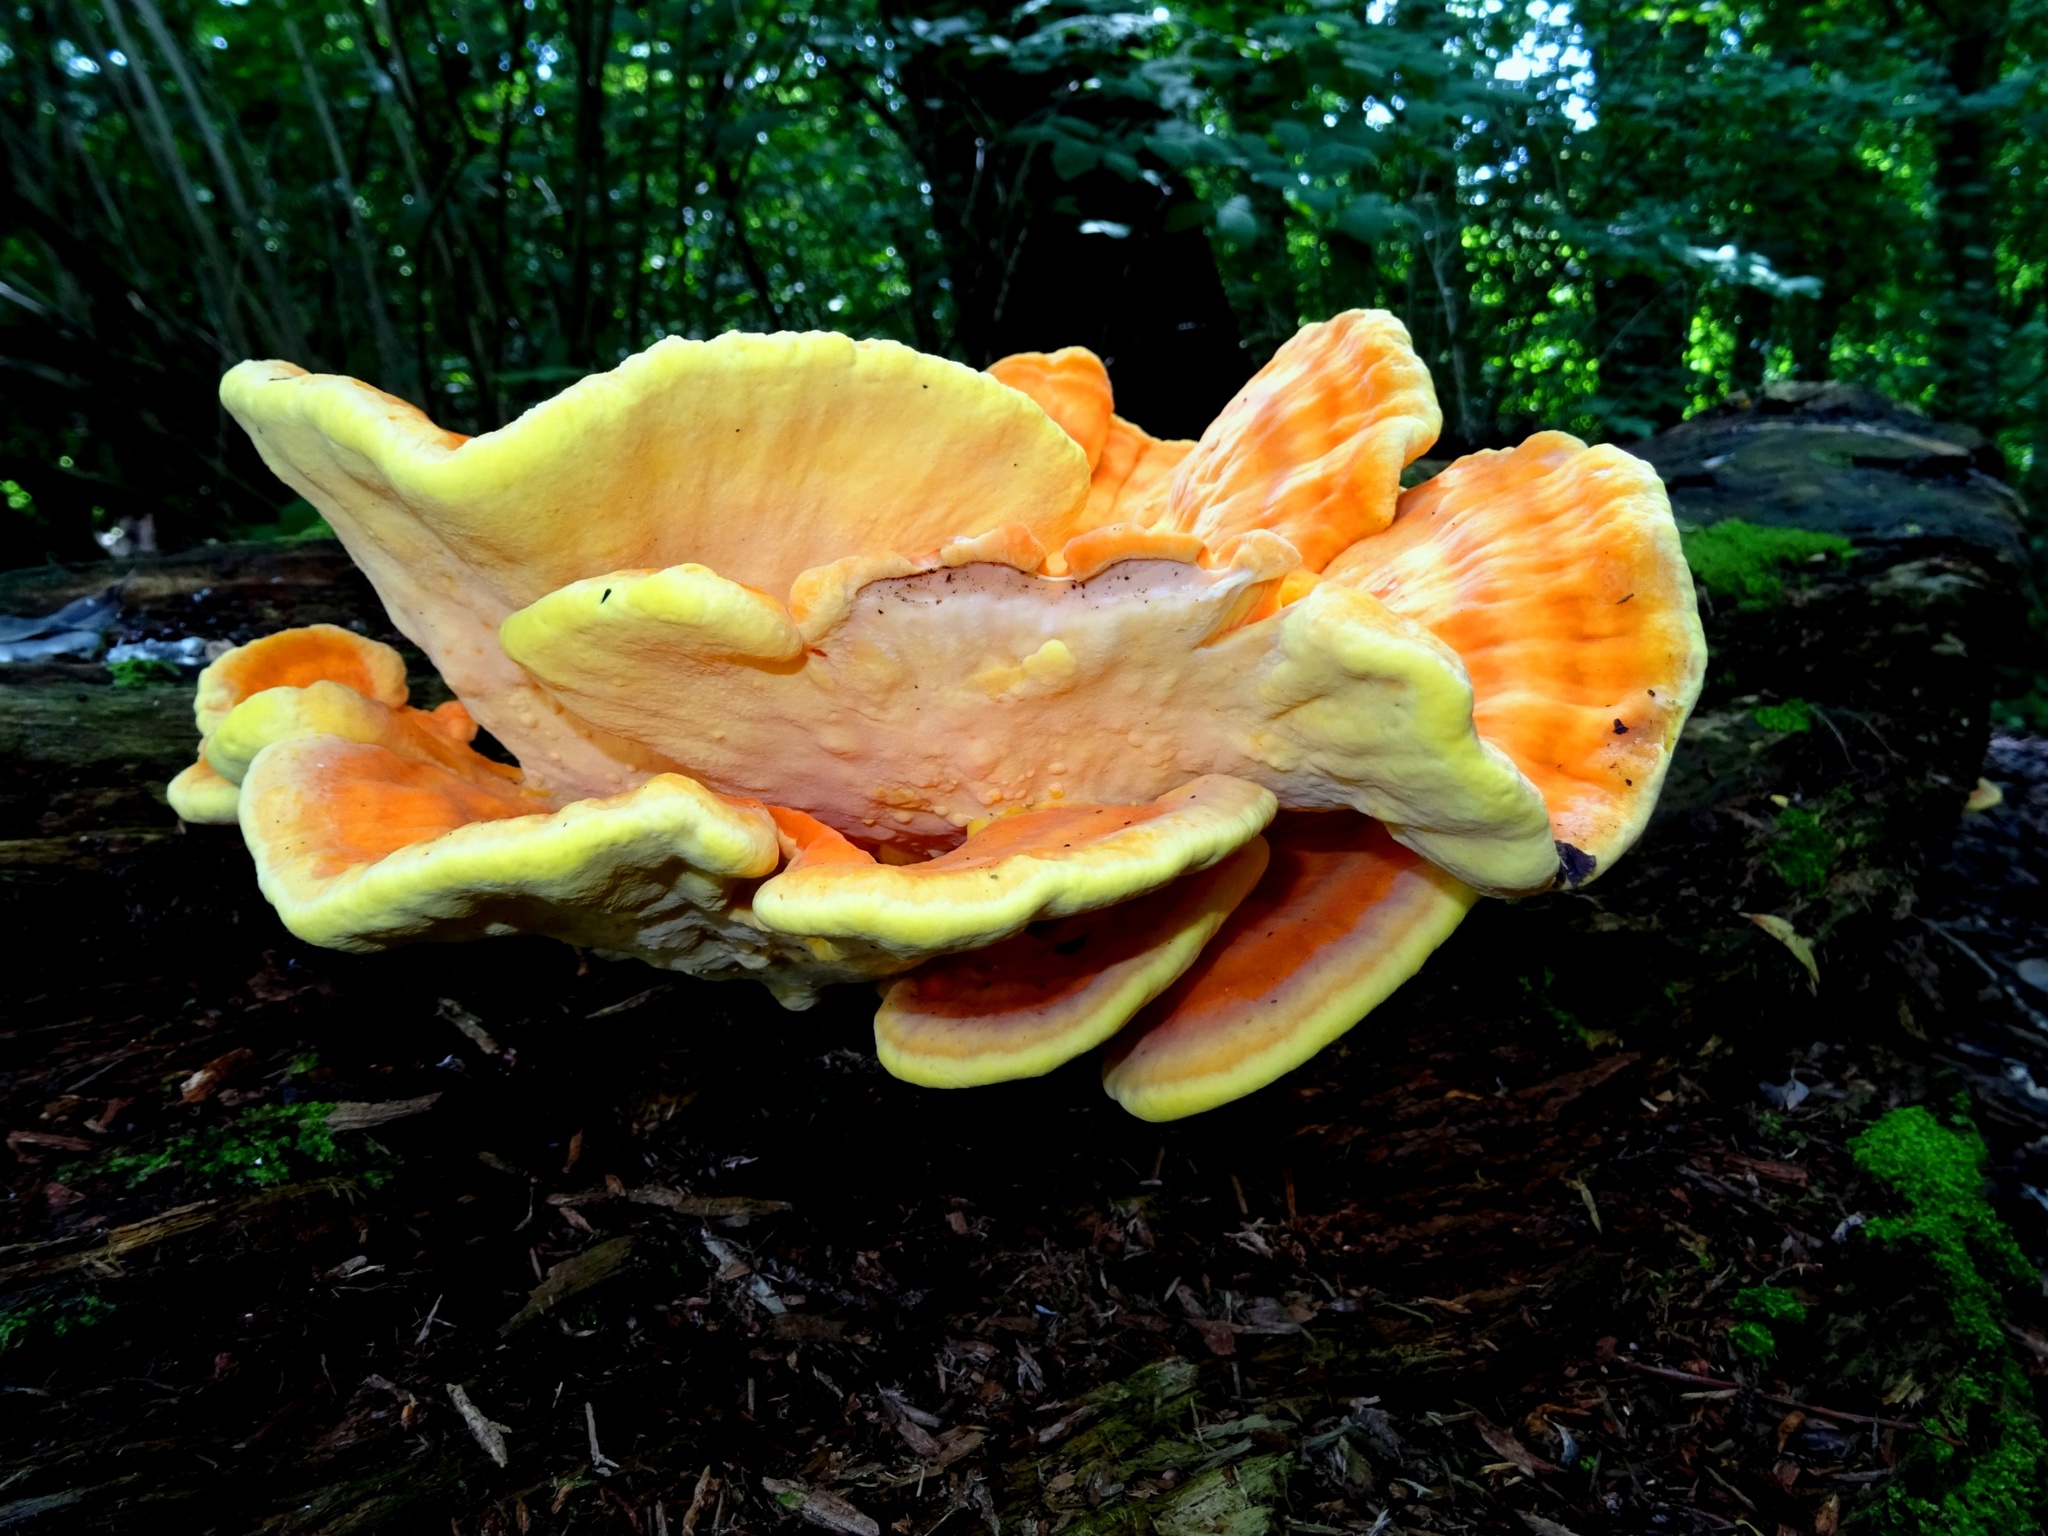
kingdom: Fungi
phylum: Basidiomycota
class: Agaricomycetes
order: Polyporales
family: Laetiporaceae
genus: Laetiporus
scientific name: Laetiporus sulphureus
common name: Chicken of the woods
